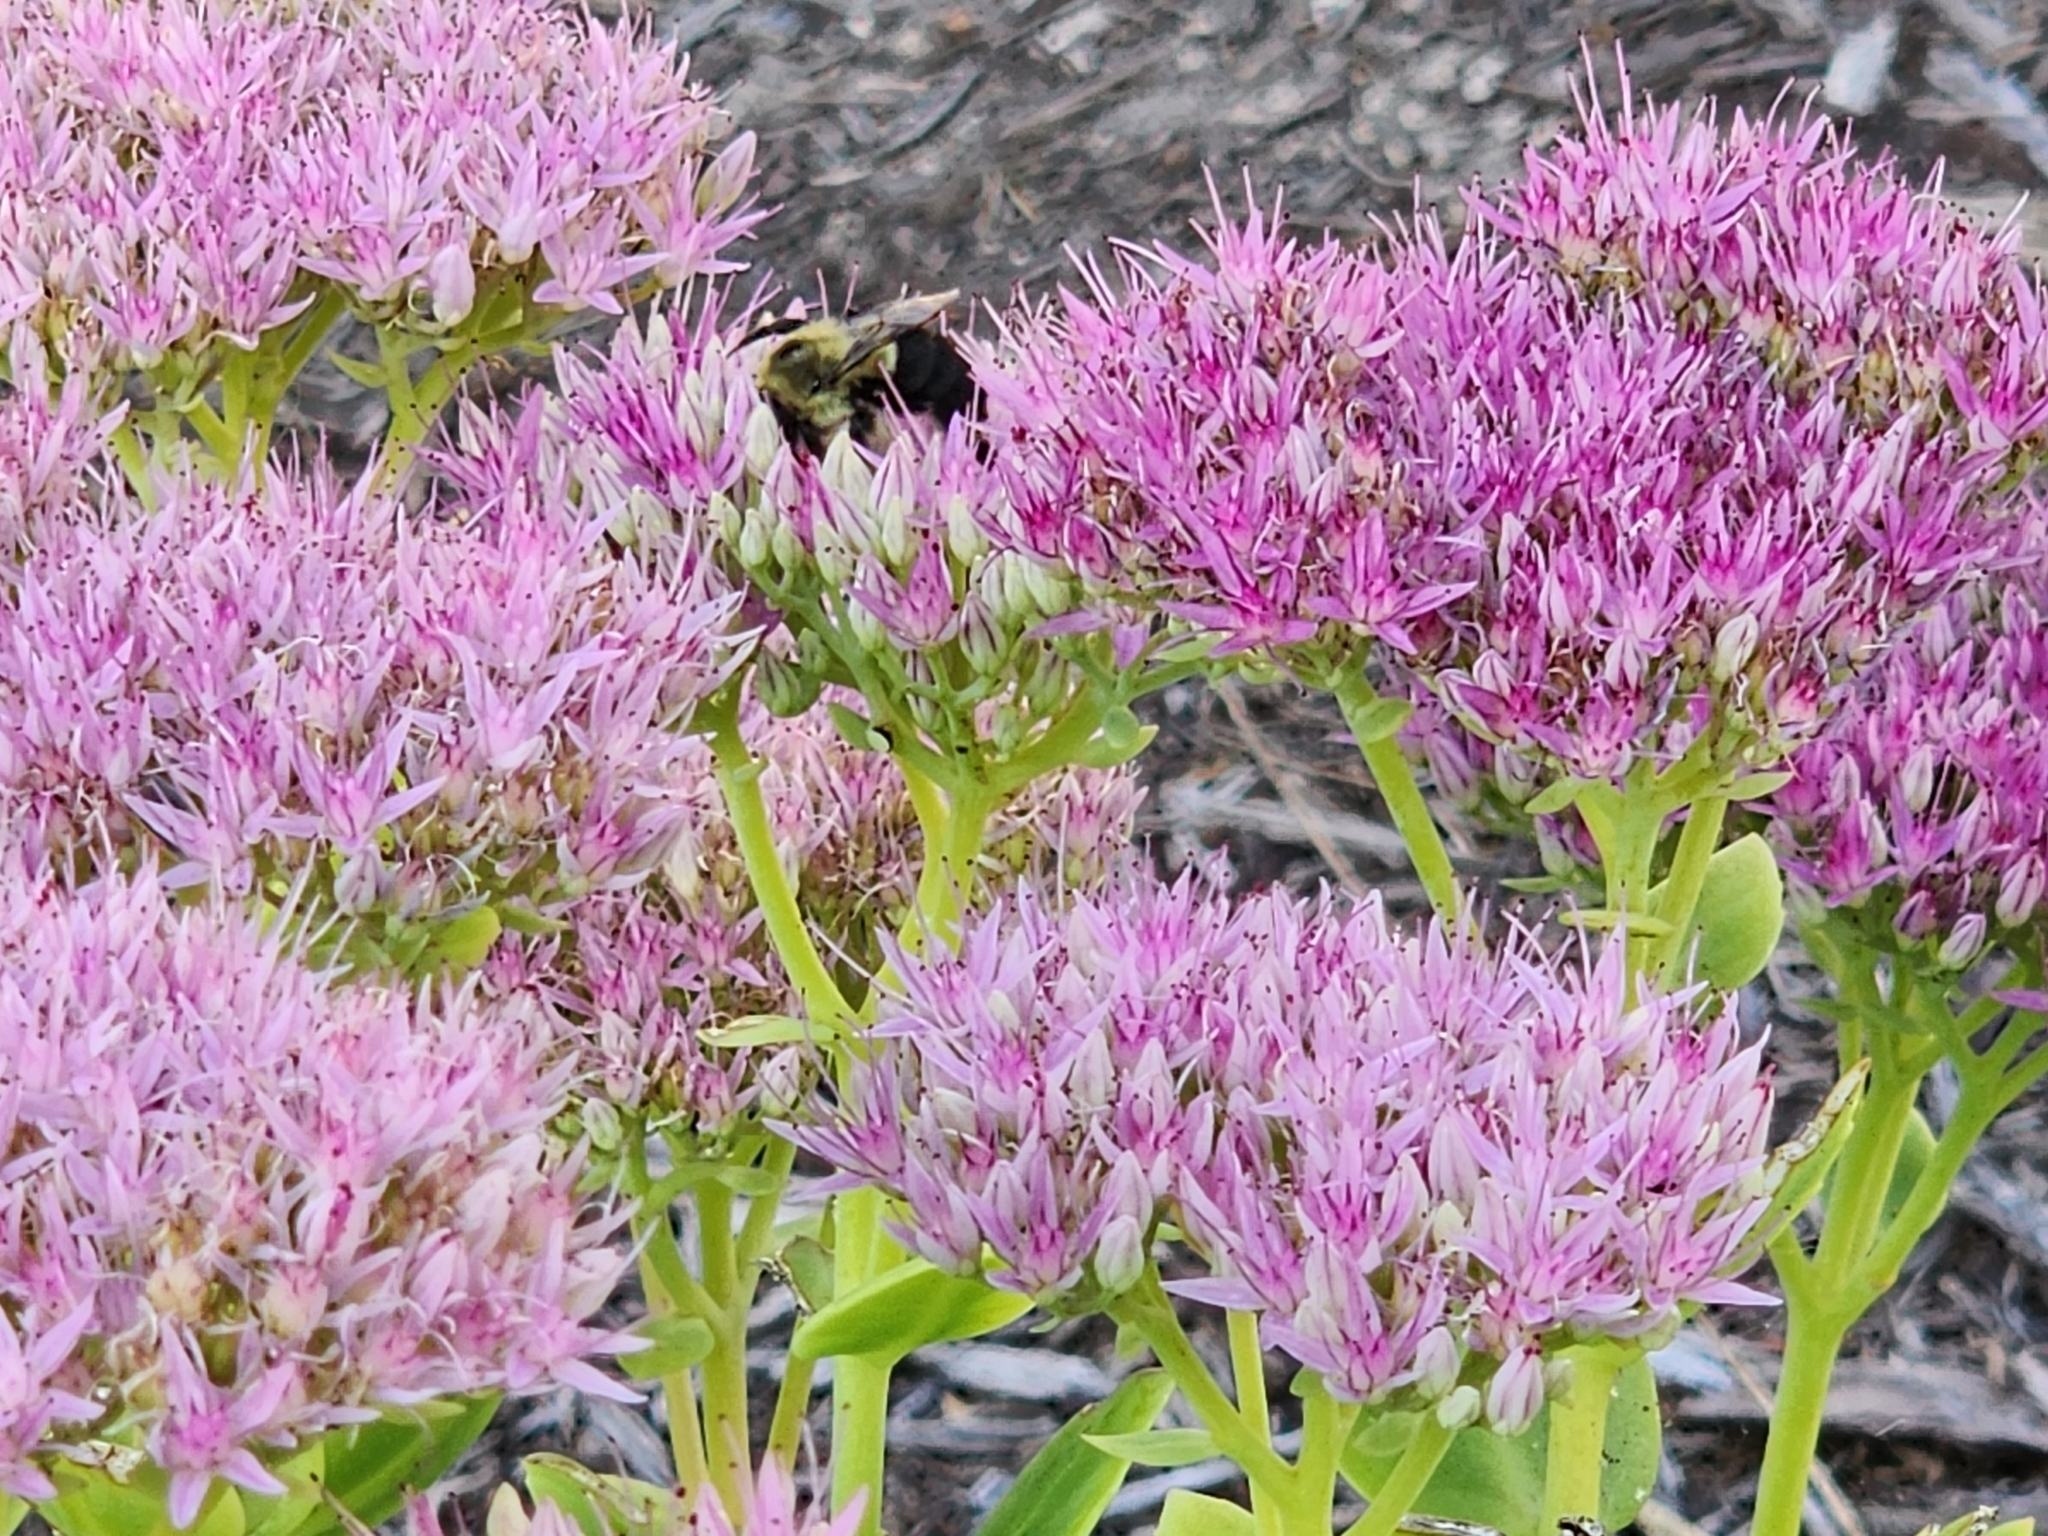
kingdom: Animalia
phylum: Arthropoda
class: Insecta
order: Hymenoptera
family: Apidae
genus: Bombus
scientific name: Bombus impatiens
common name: Common eastern bumble bee
